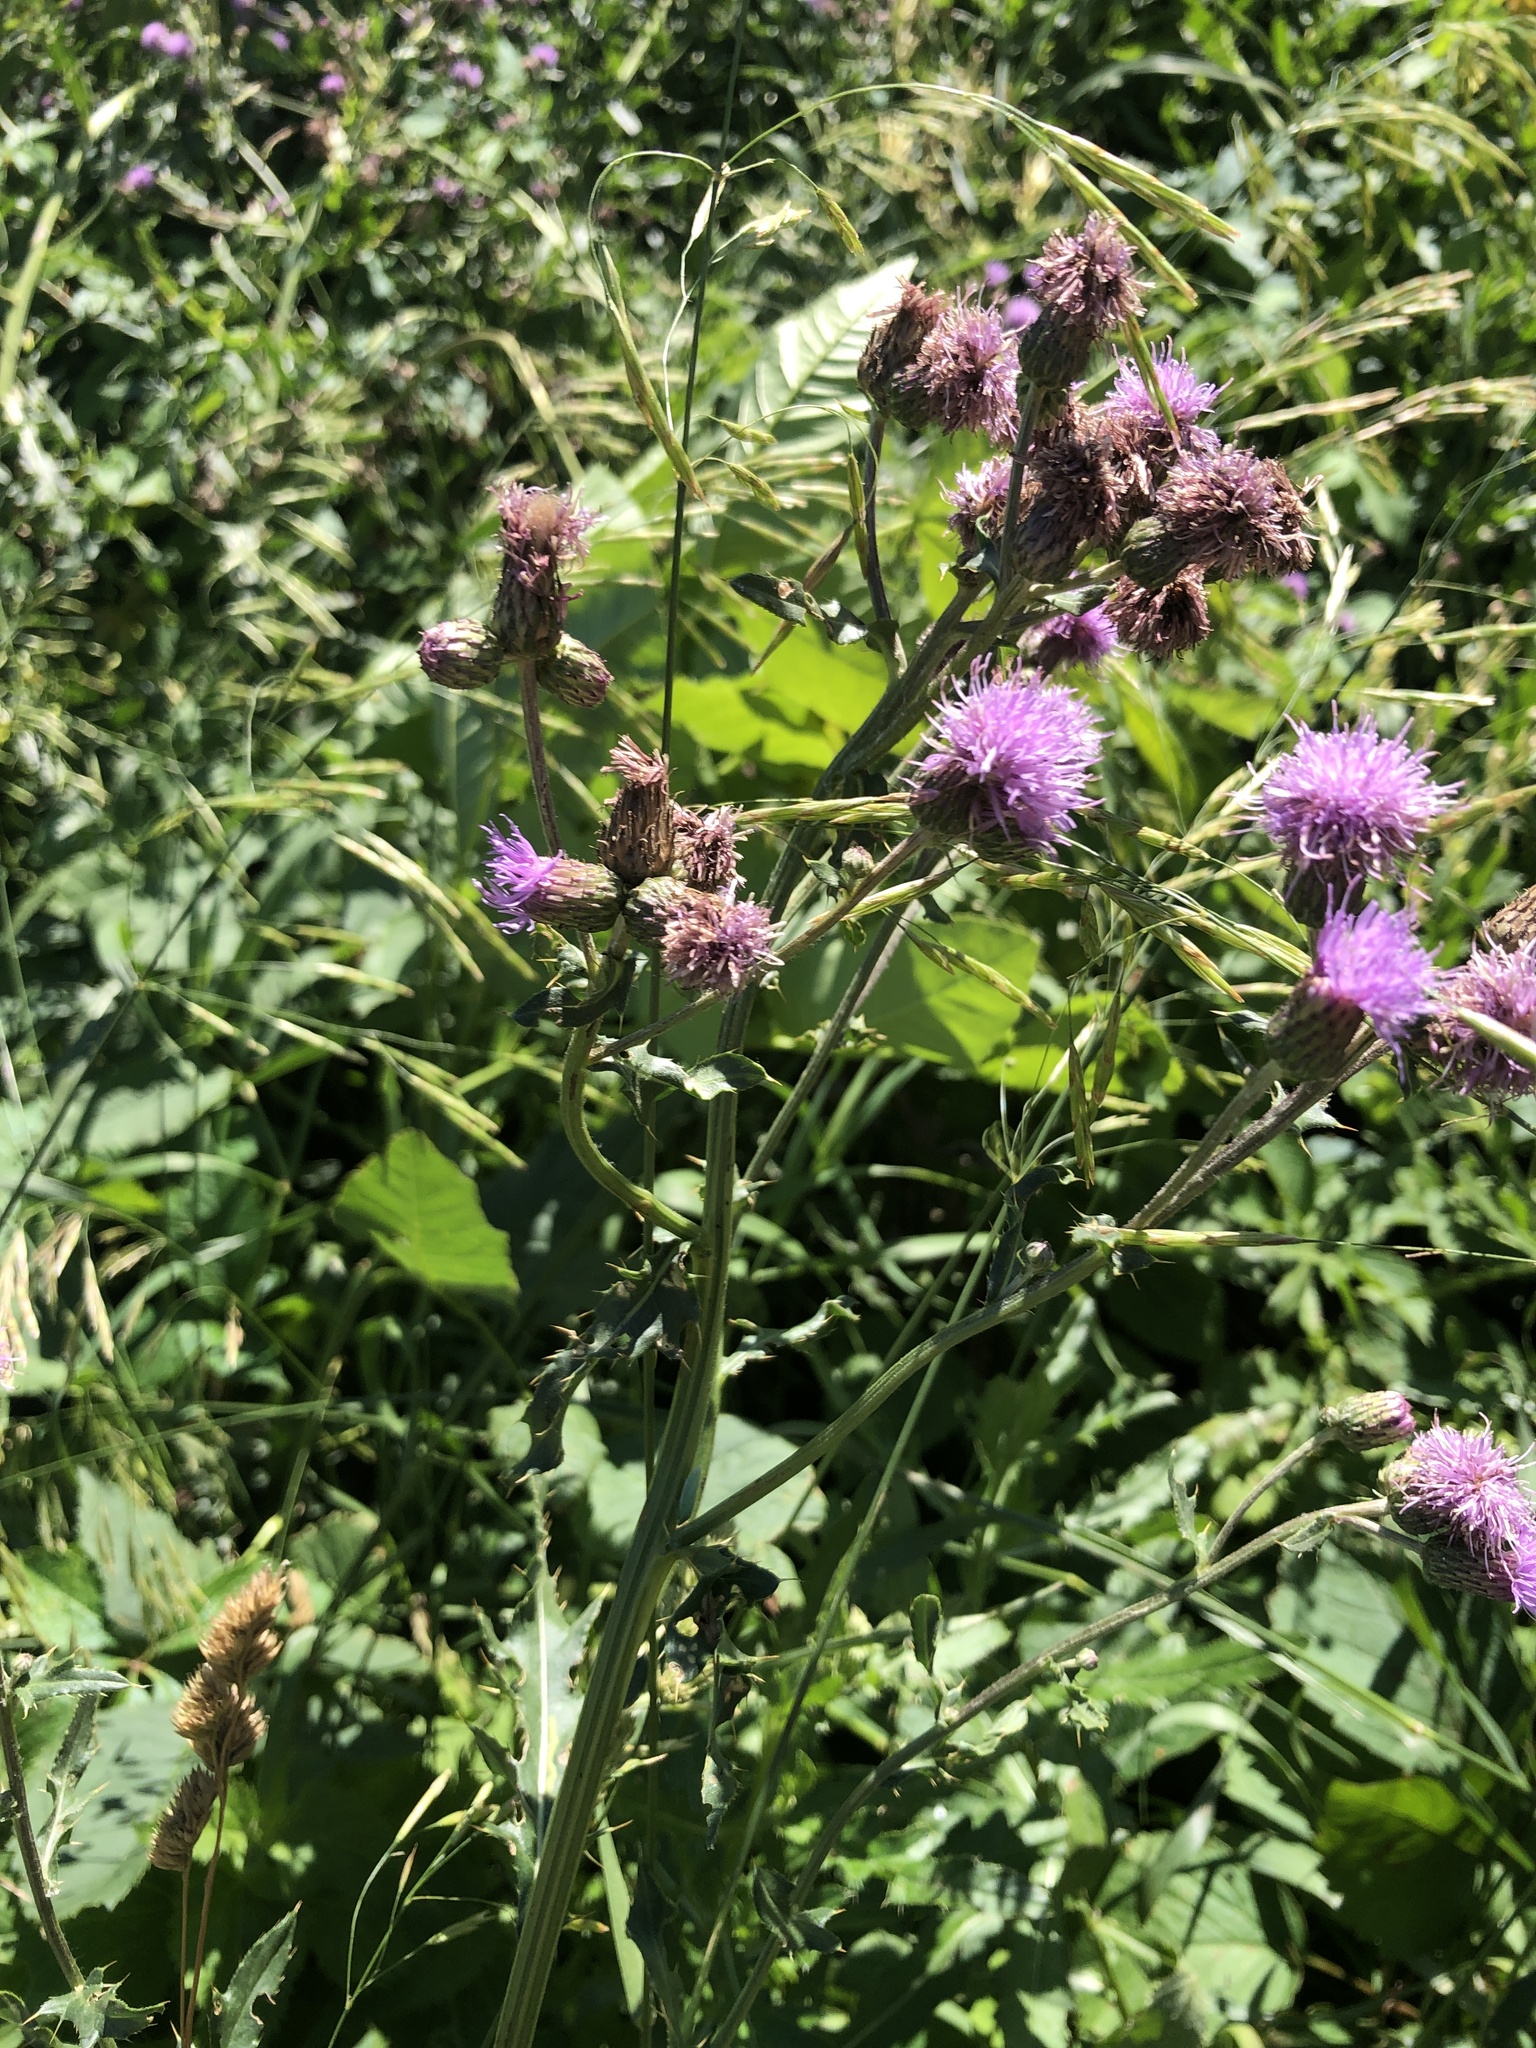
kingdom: Plantae
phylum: Tracheophyta
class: Magnoliopsida
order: Asterales
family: Asteraceae
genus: Cirsium
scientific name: Cirsium arvense
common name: Creeping thistle
